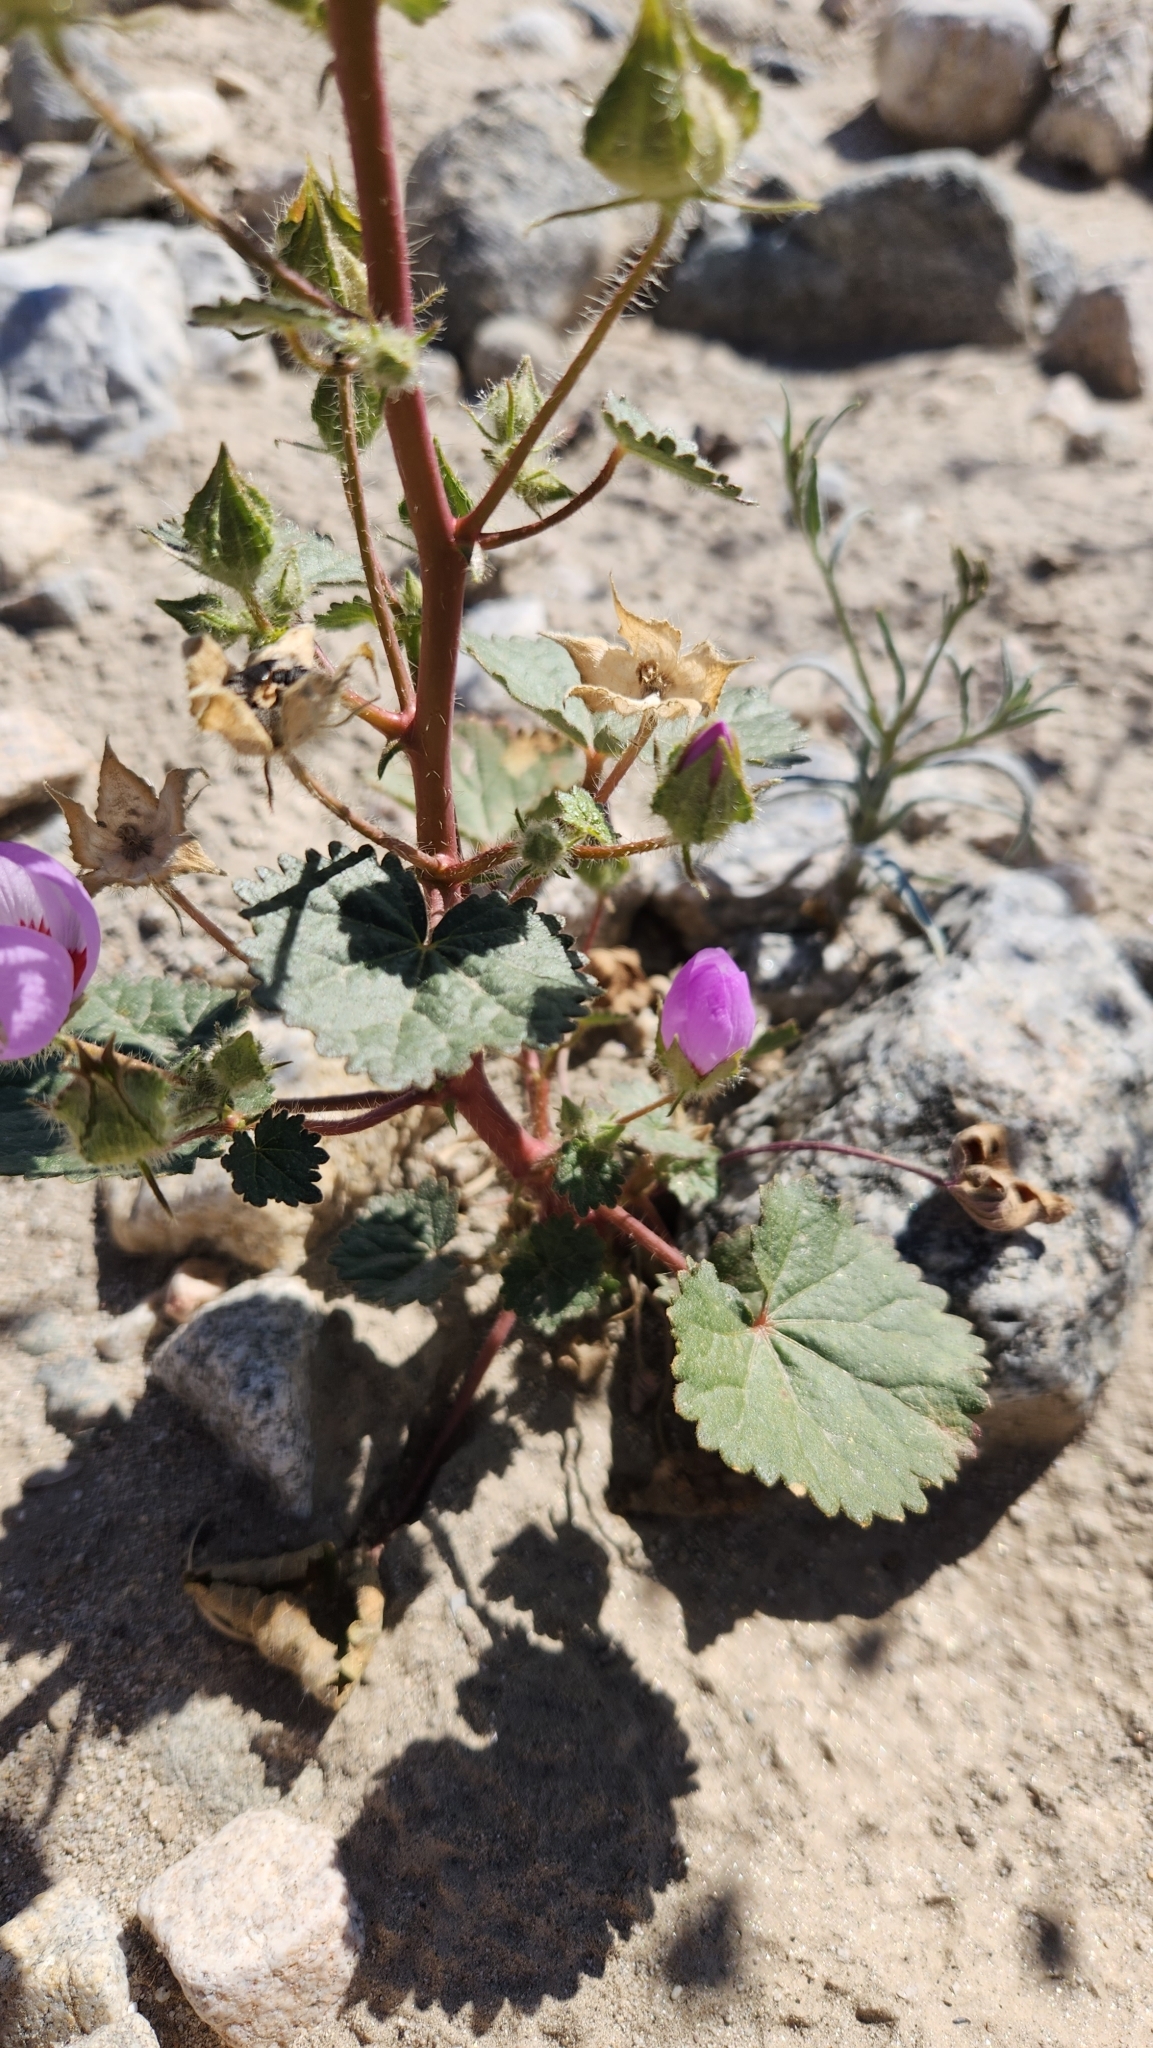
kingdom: Plantae
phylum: Tracheophyta
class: Magnoliopsida
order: Malvales
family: Malvaceae
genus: Eremalche
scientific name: Eremalche rotundifolia
